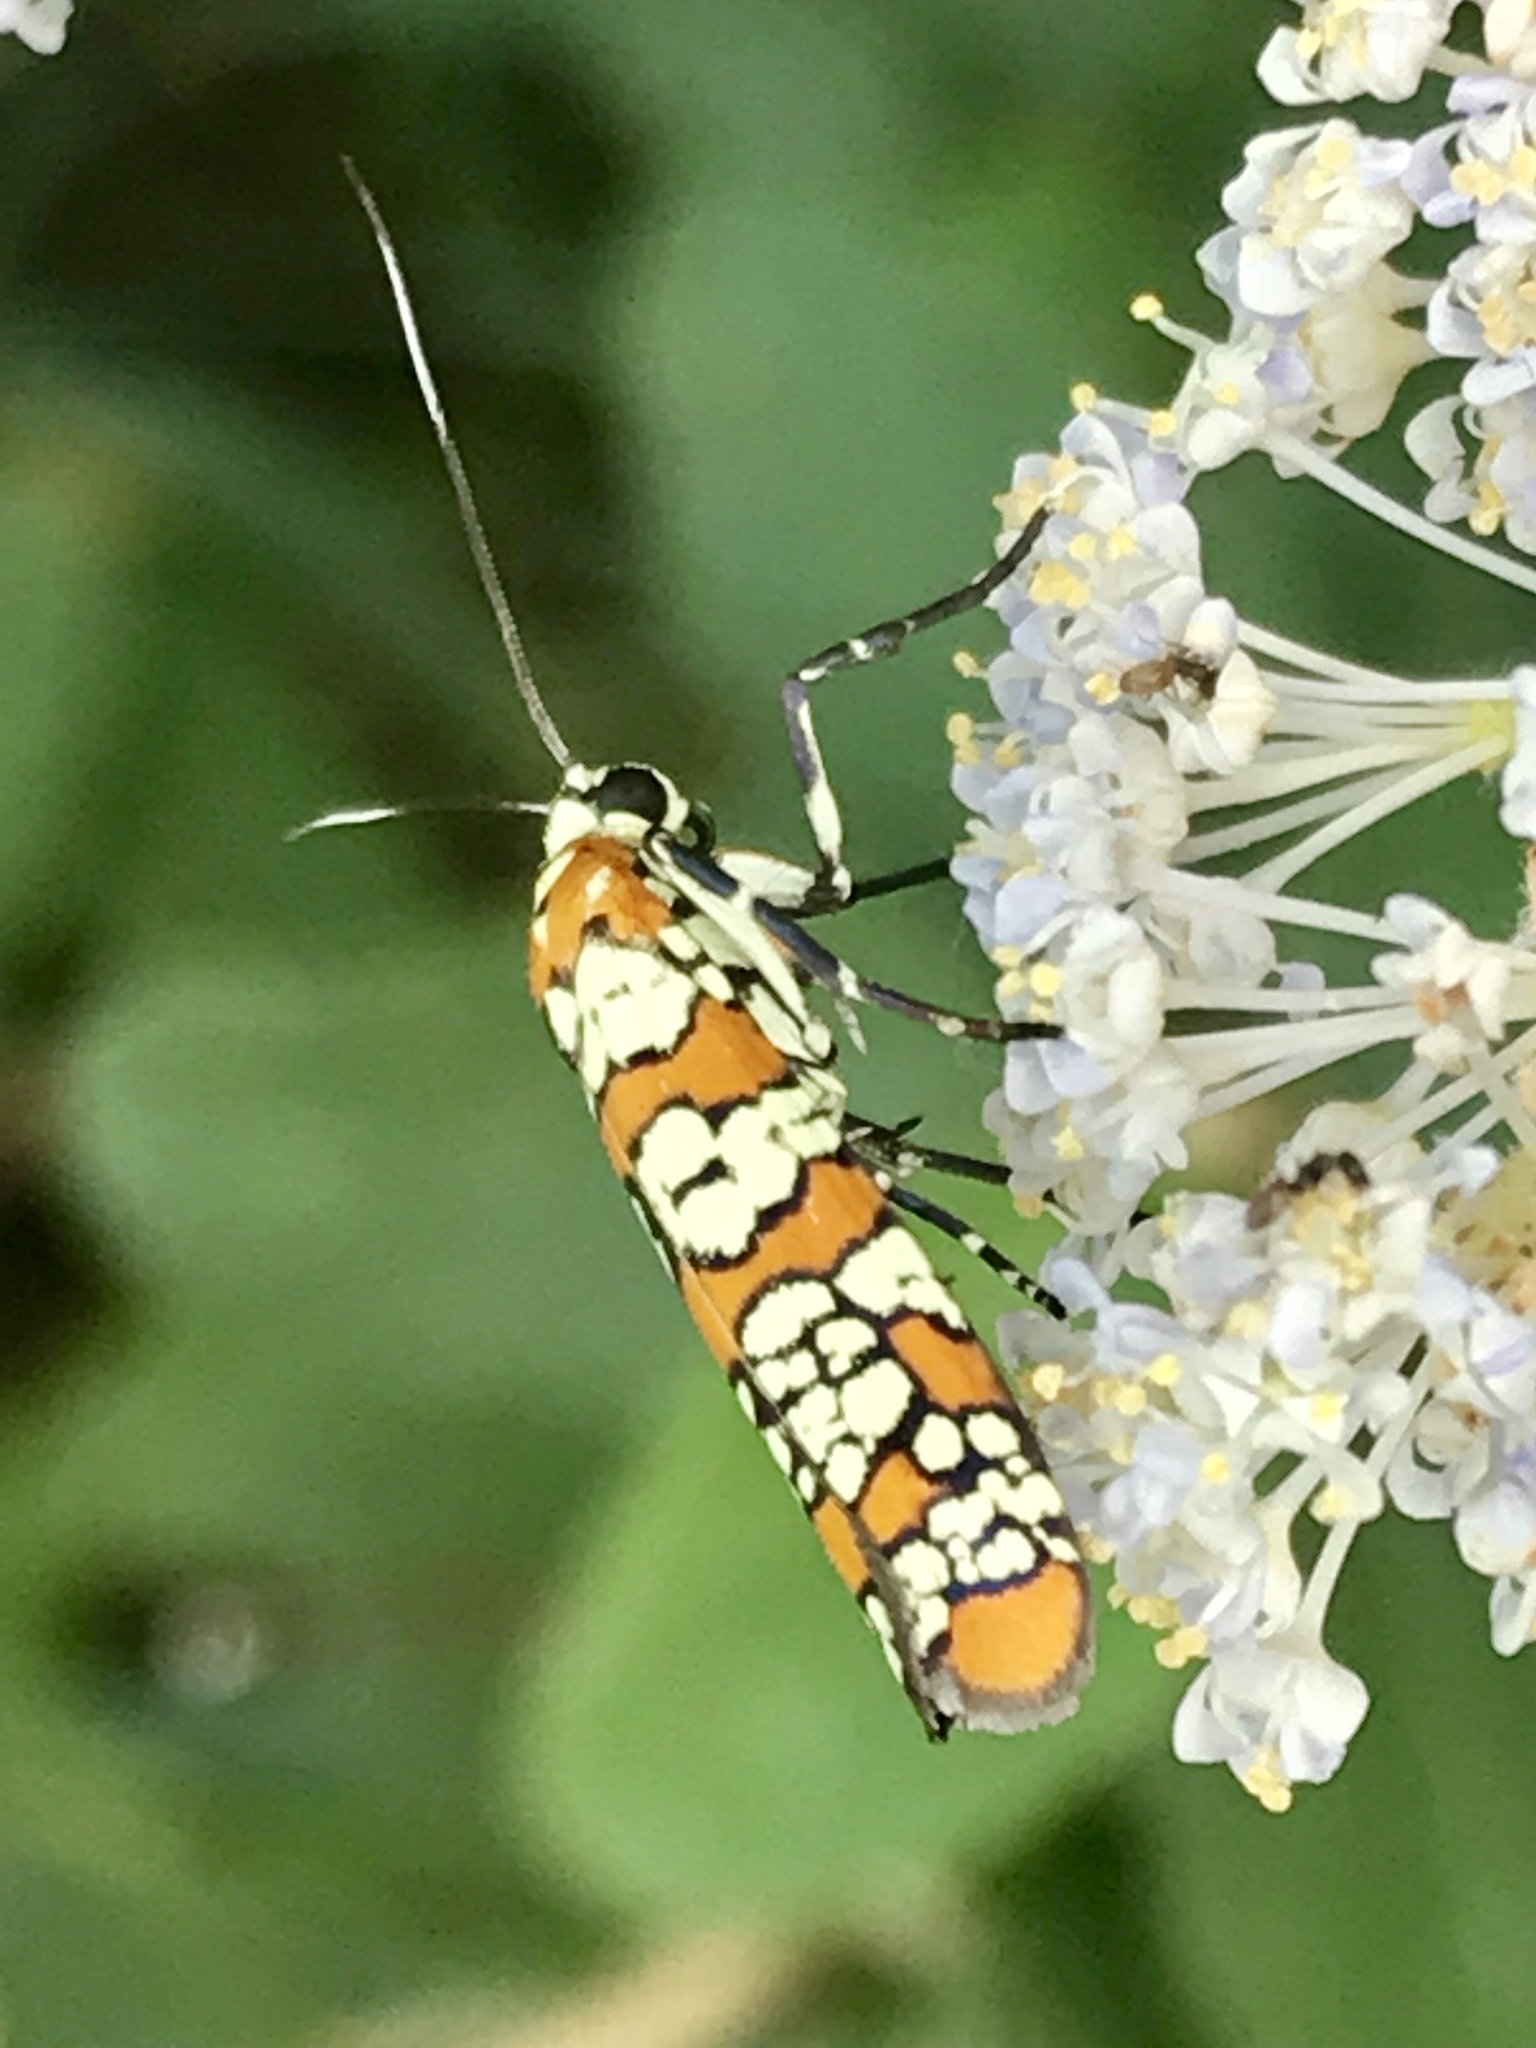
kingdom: Animalia
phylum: Arthropoda
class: Insecta
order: Lepidoptera
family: Attevidae
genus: Atteva
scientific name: Atteva punctella
